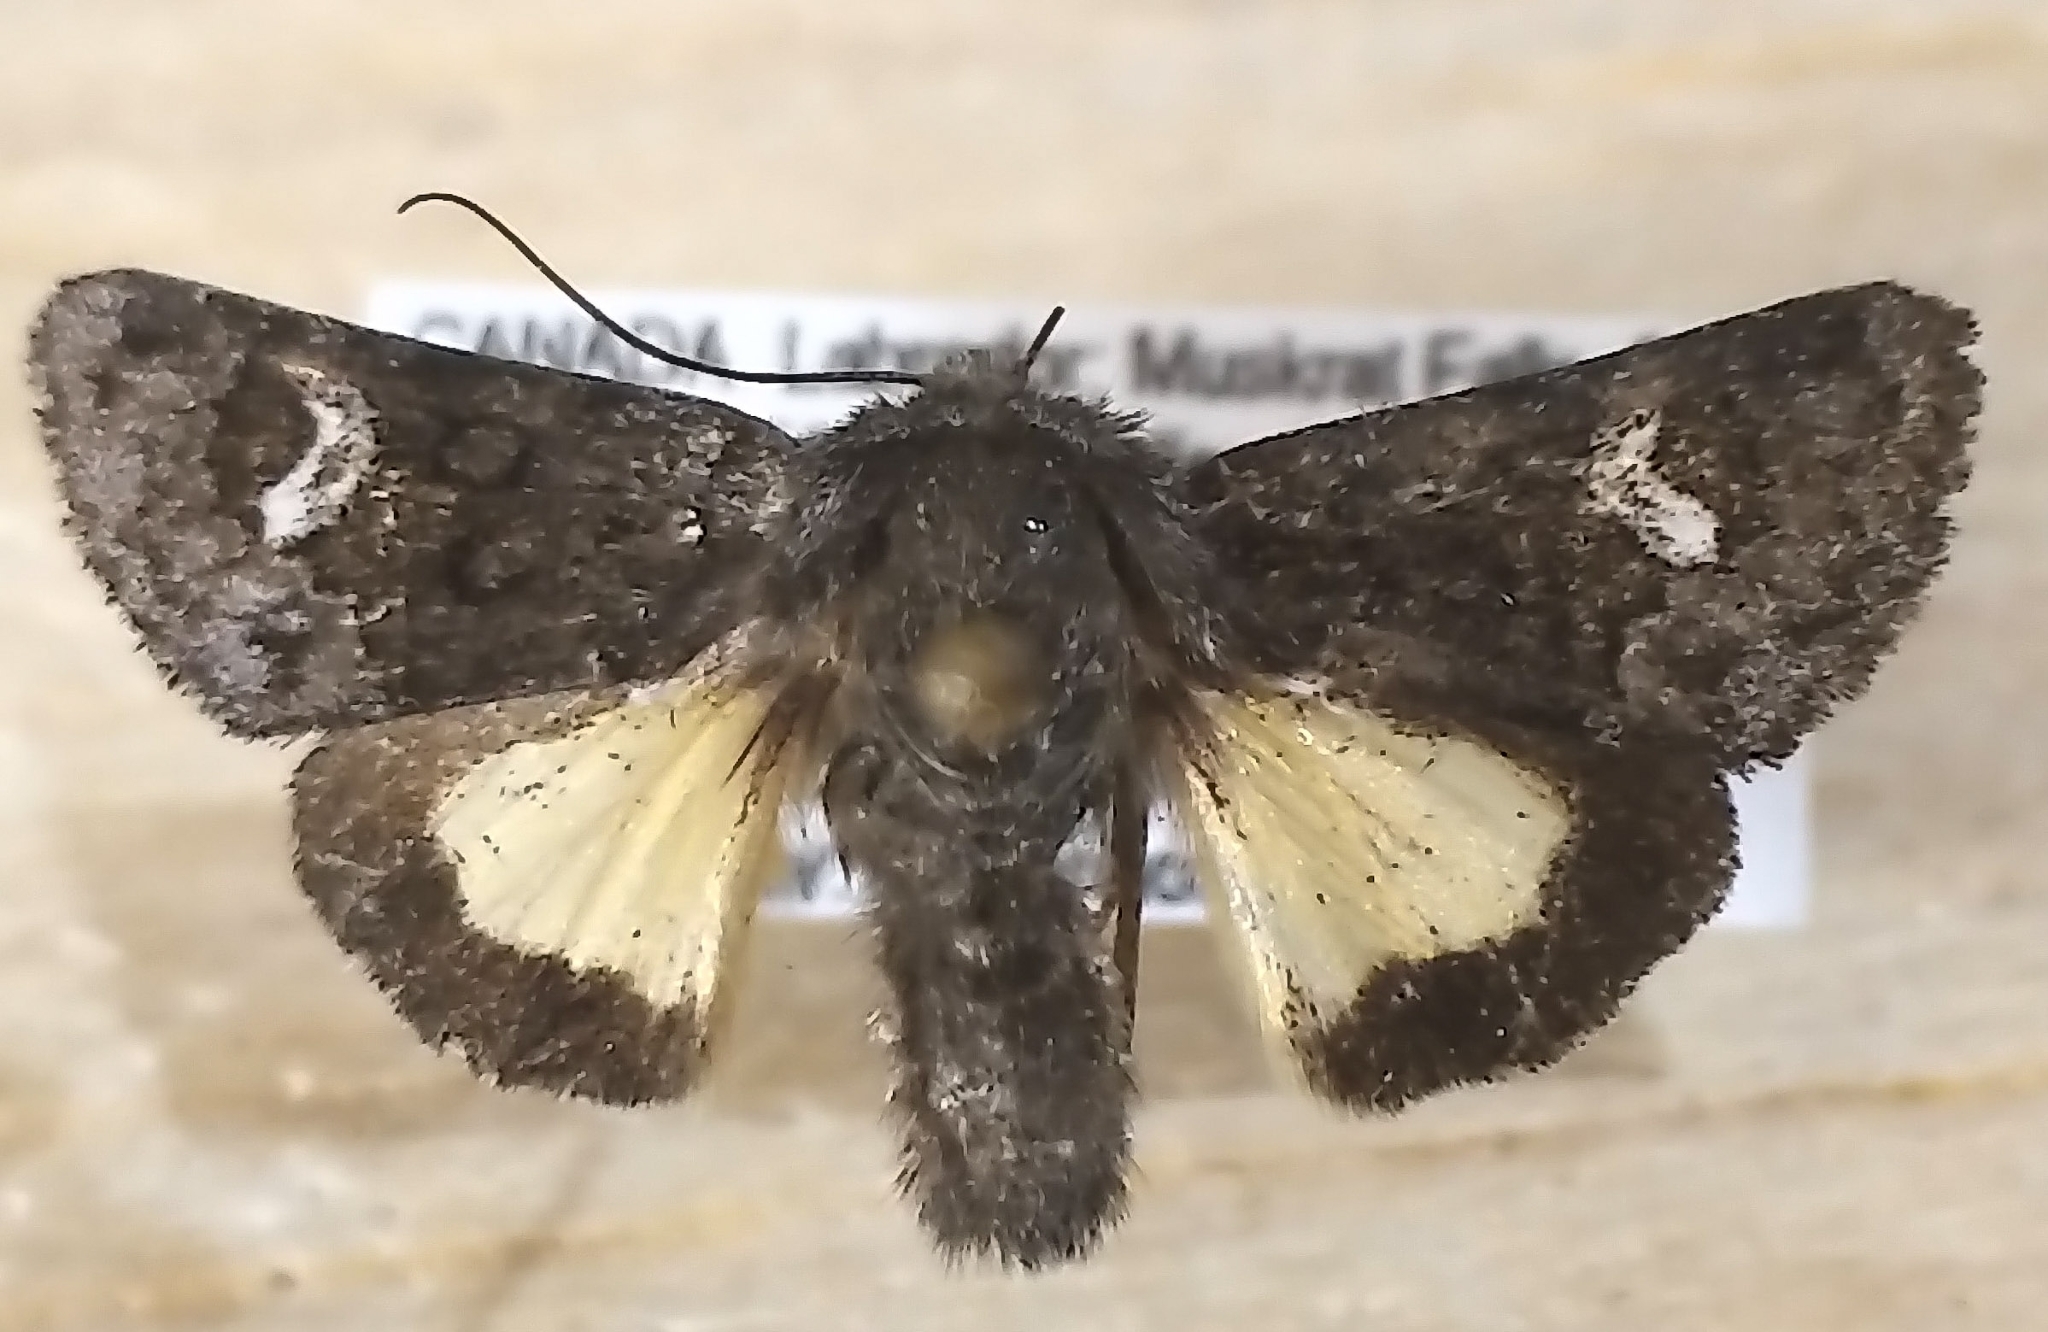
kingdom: Animalia
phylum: Arthropoda
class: Insecta
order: Lepidoptera
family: Noctuidae
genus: Coranarta
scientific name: Coranarta luteola
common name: Small dark yellow underwing
